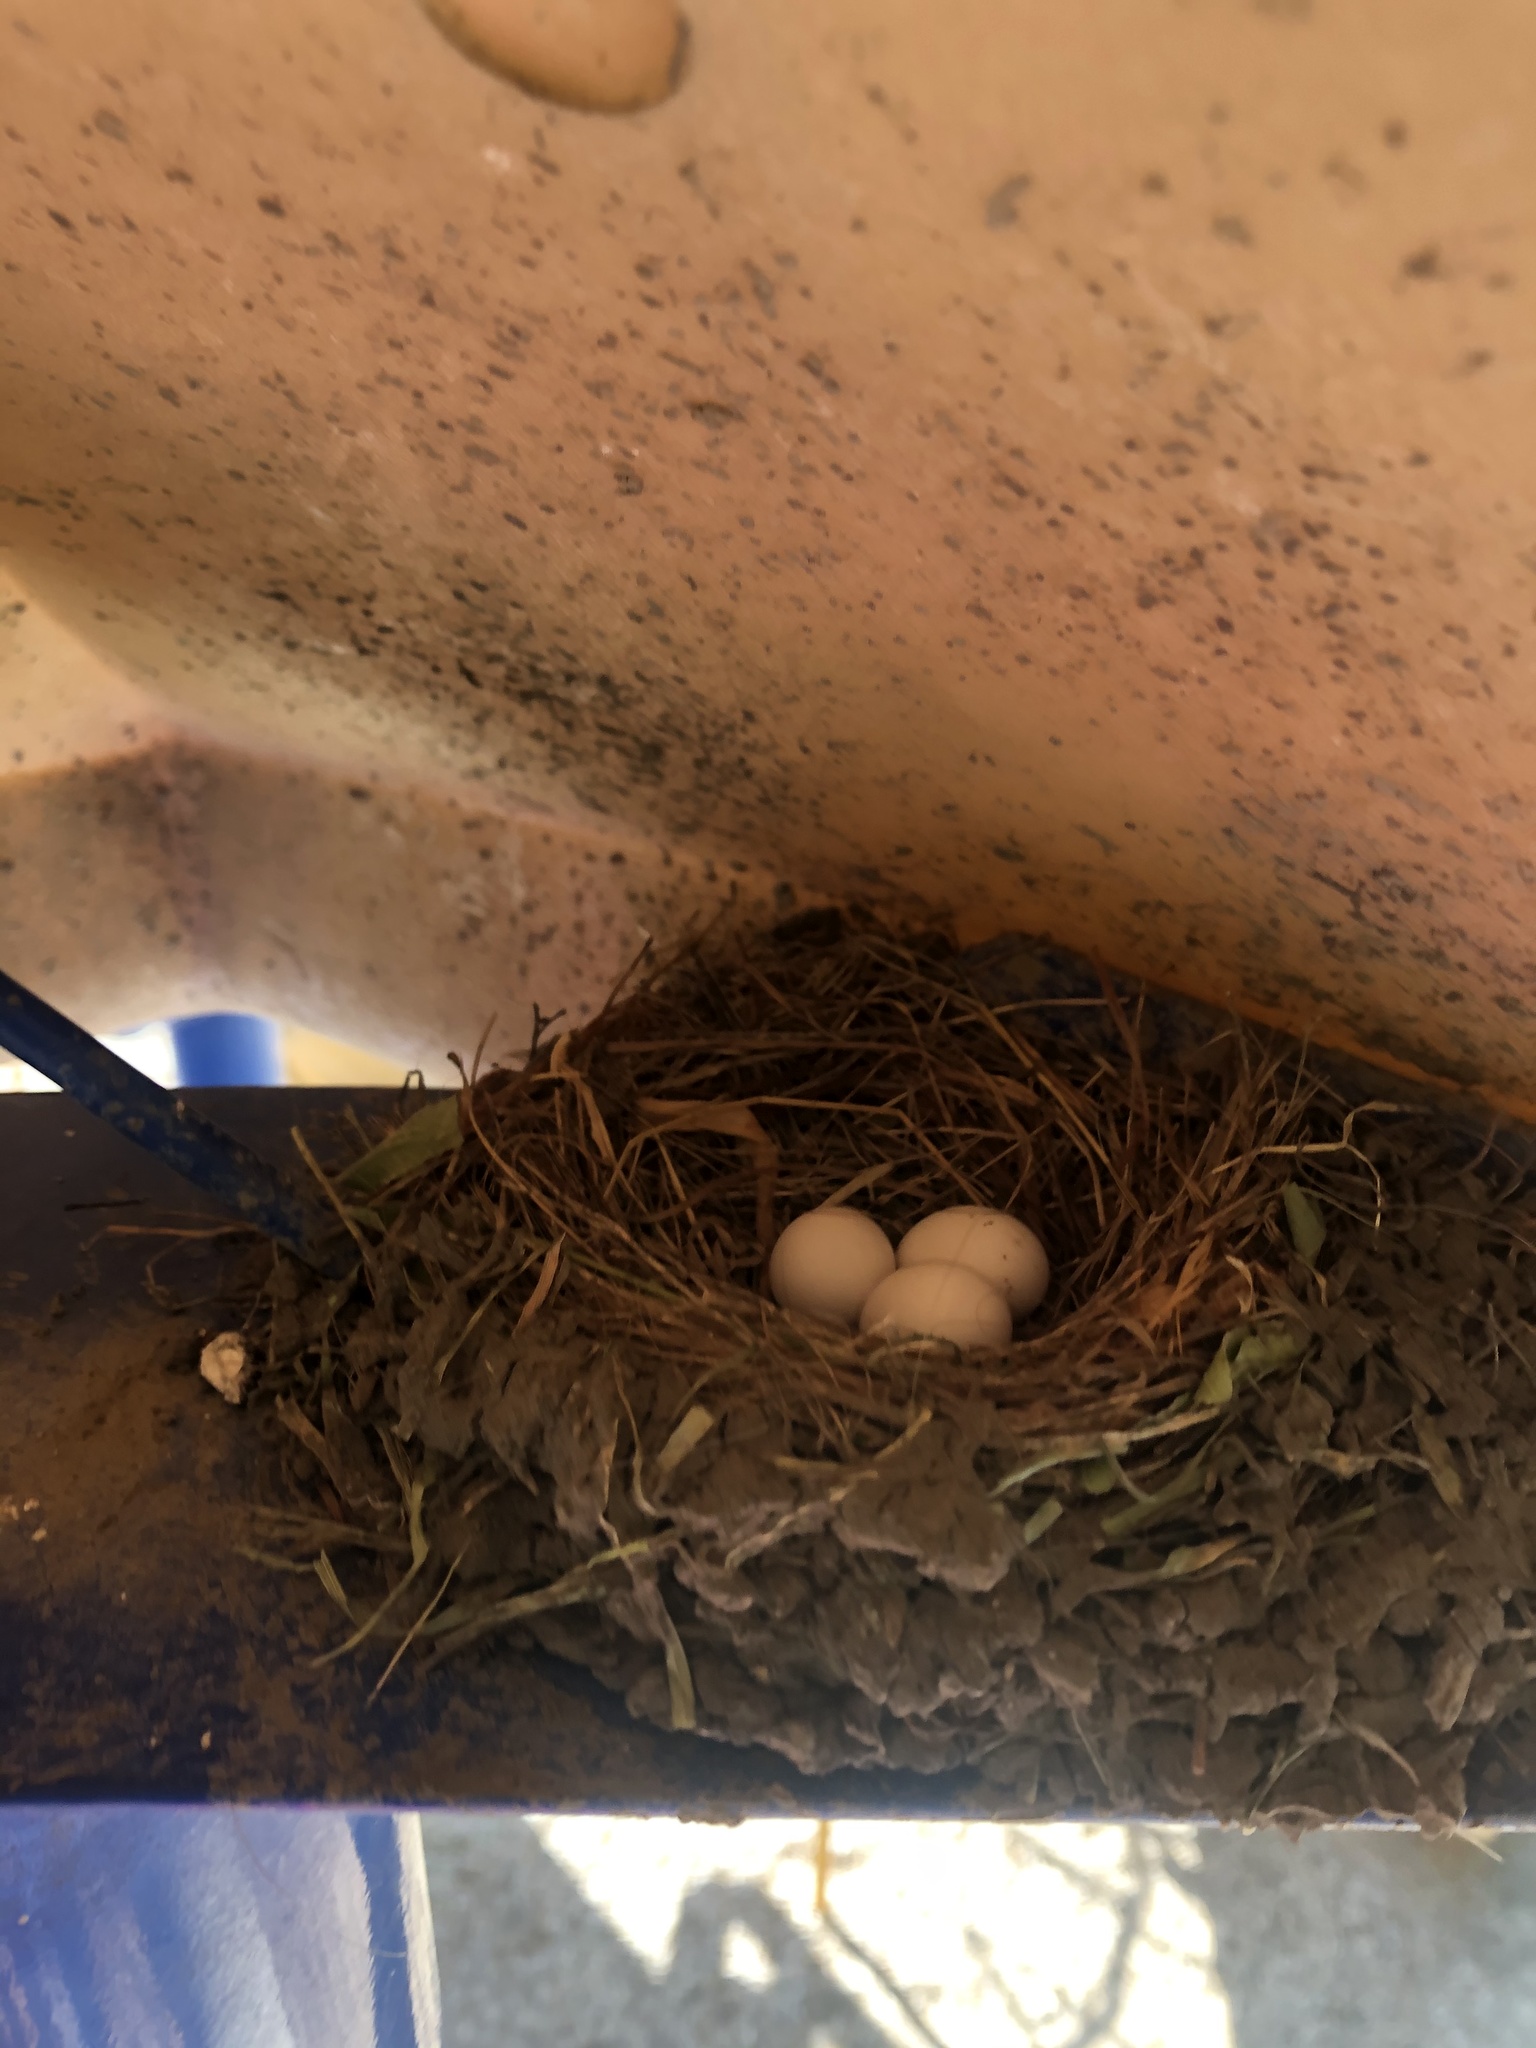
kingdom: Animalia
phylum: Chordata
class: Aves
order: Passeriformes
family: Tyrannidae
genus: Sayornis
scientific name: Sayornis nigricans
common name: Black phoebe
